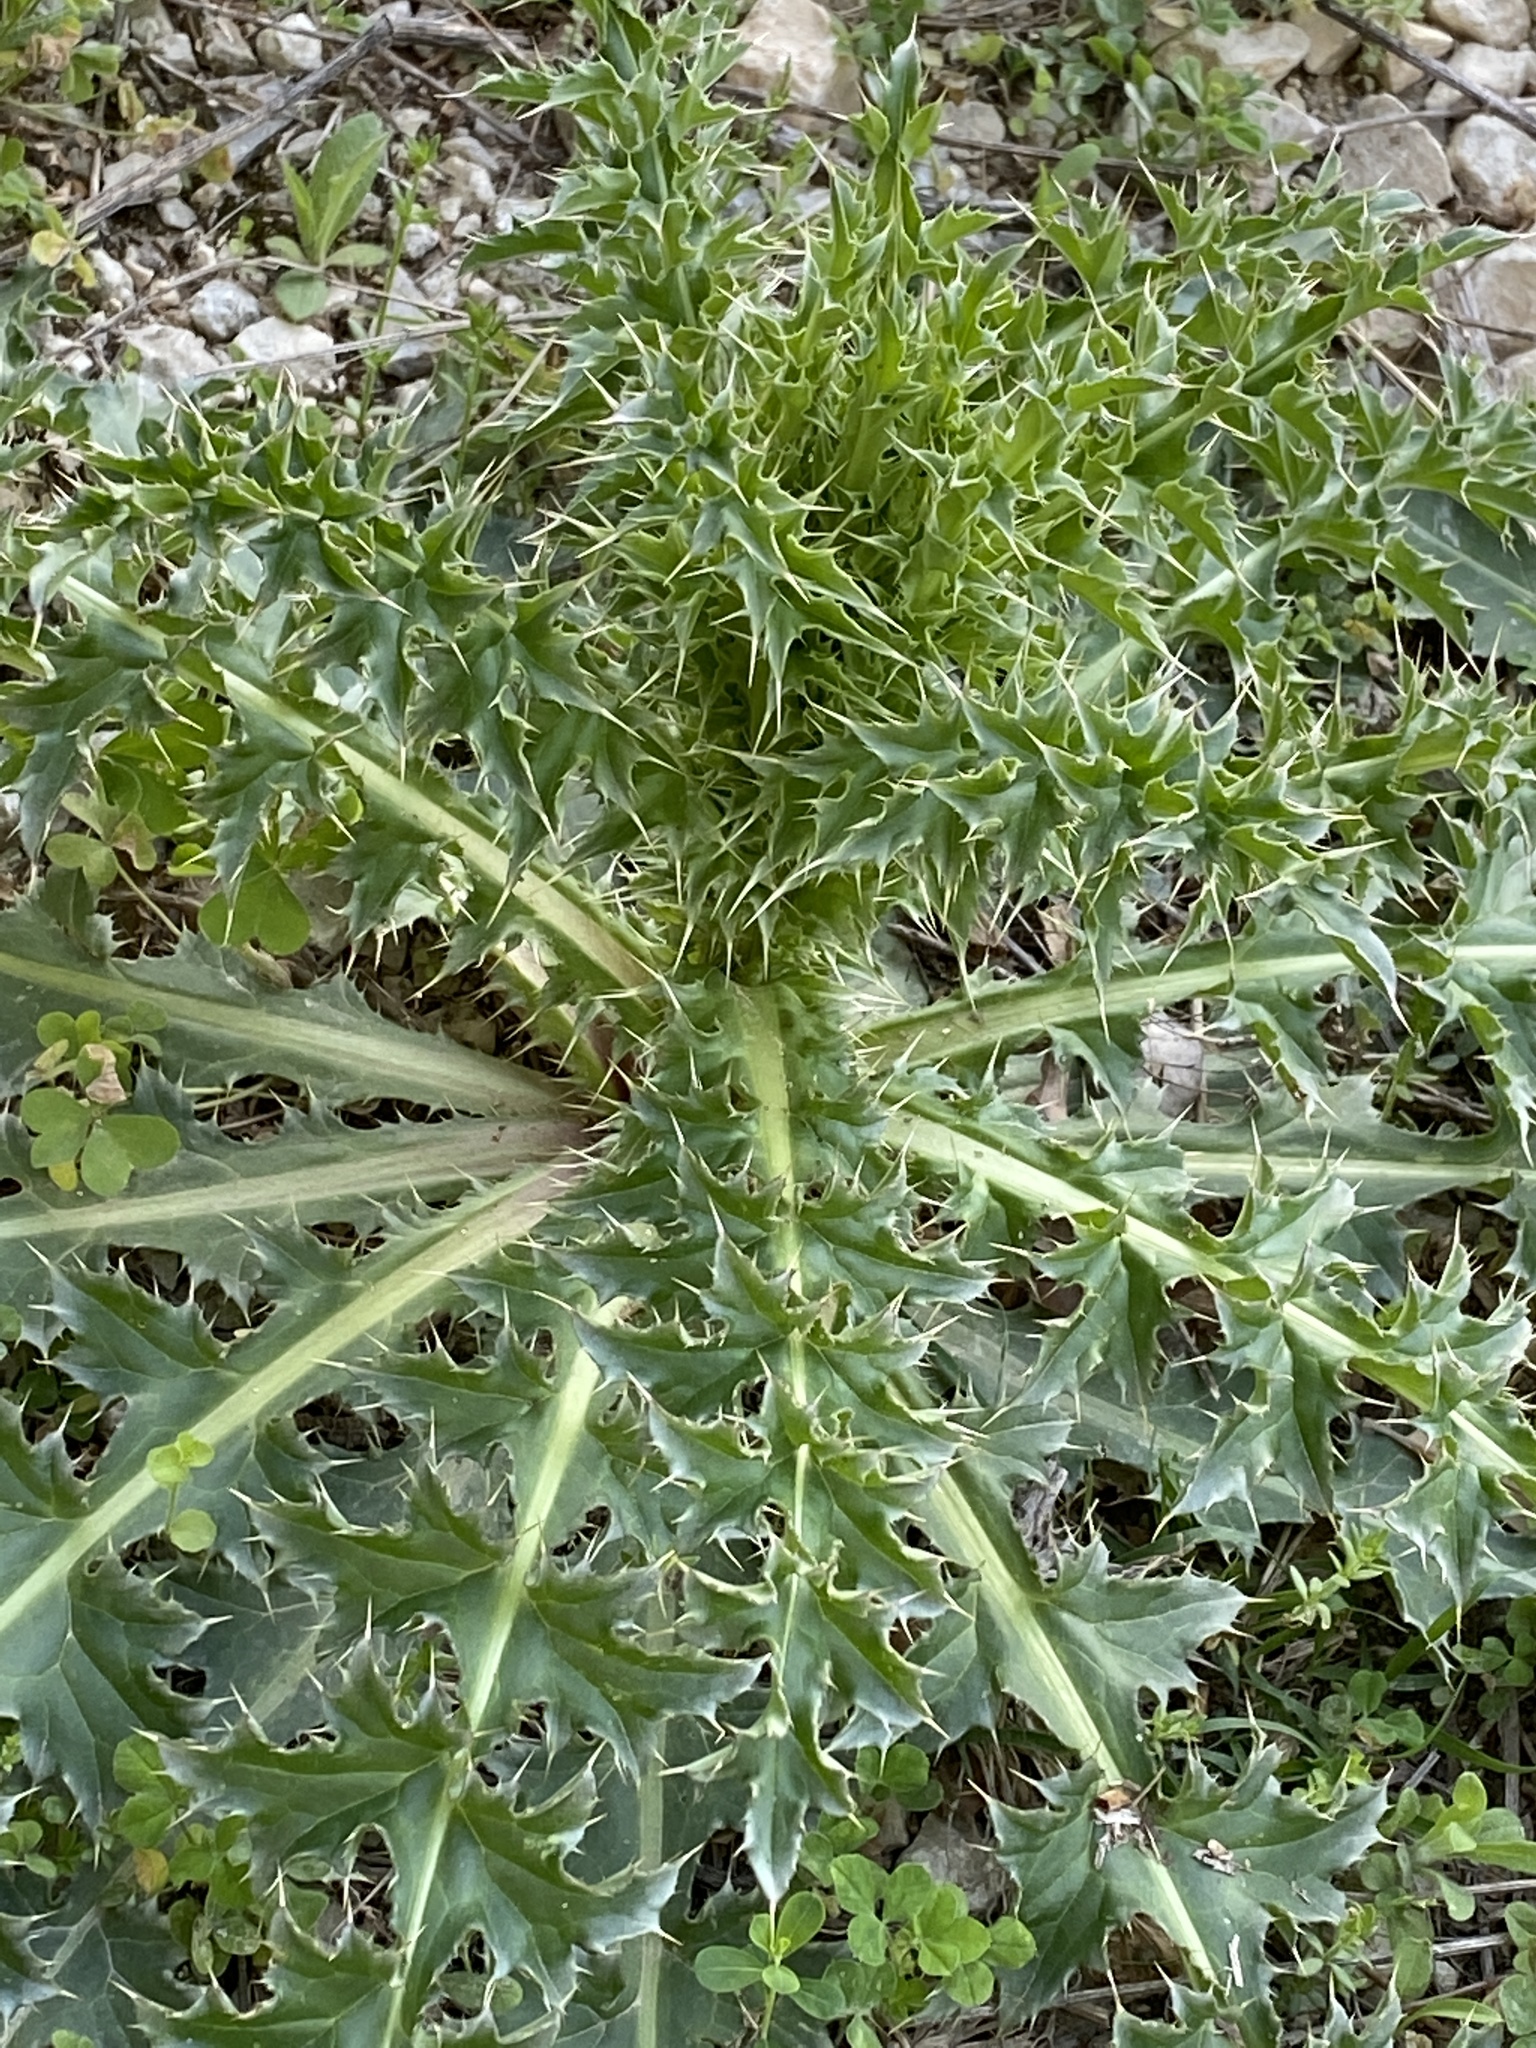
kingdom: Plantae
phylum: Tracheophyta
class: Magnoliopsida
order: Asterales
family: Asteraceae
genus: Carduus
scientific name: Carduus nutans
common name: Musk thistle
